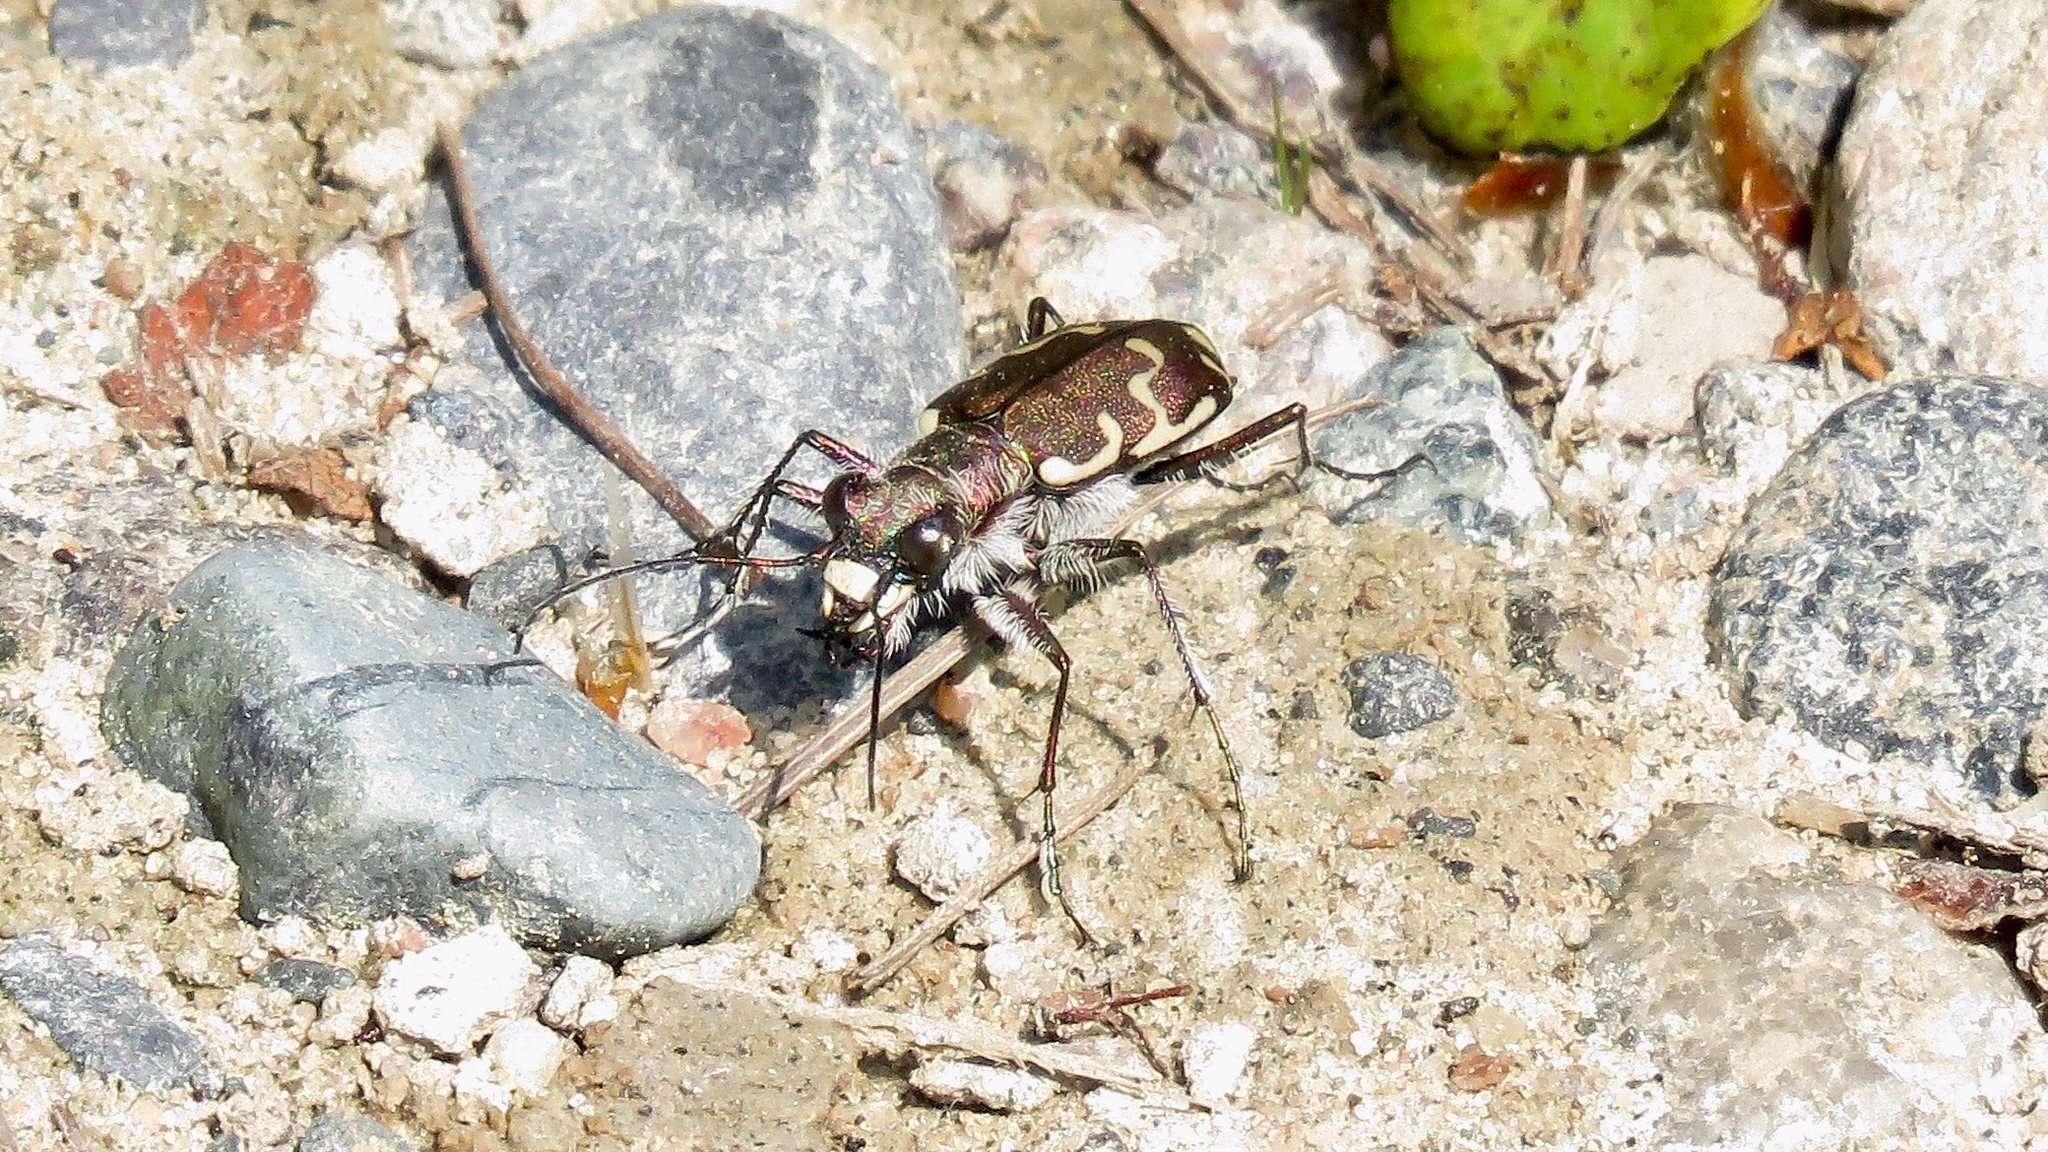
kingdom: Animalia
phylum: Arthropoda
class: Insecta
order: Coleoptera
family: Carabidae
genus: Cicindela
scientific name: Cicindela repanda
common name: Bronzed tiger beetle
